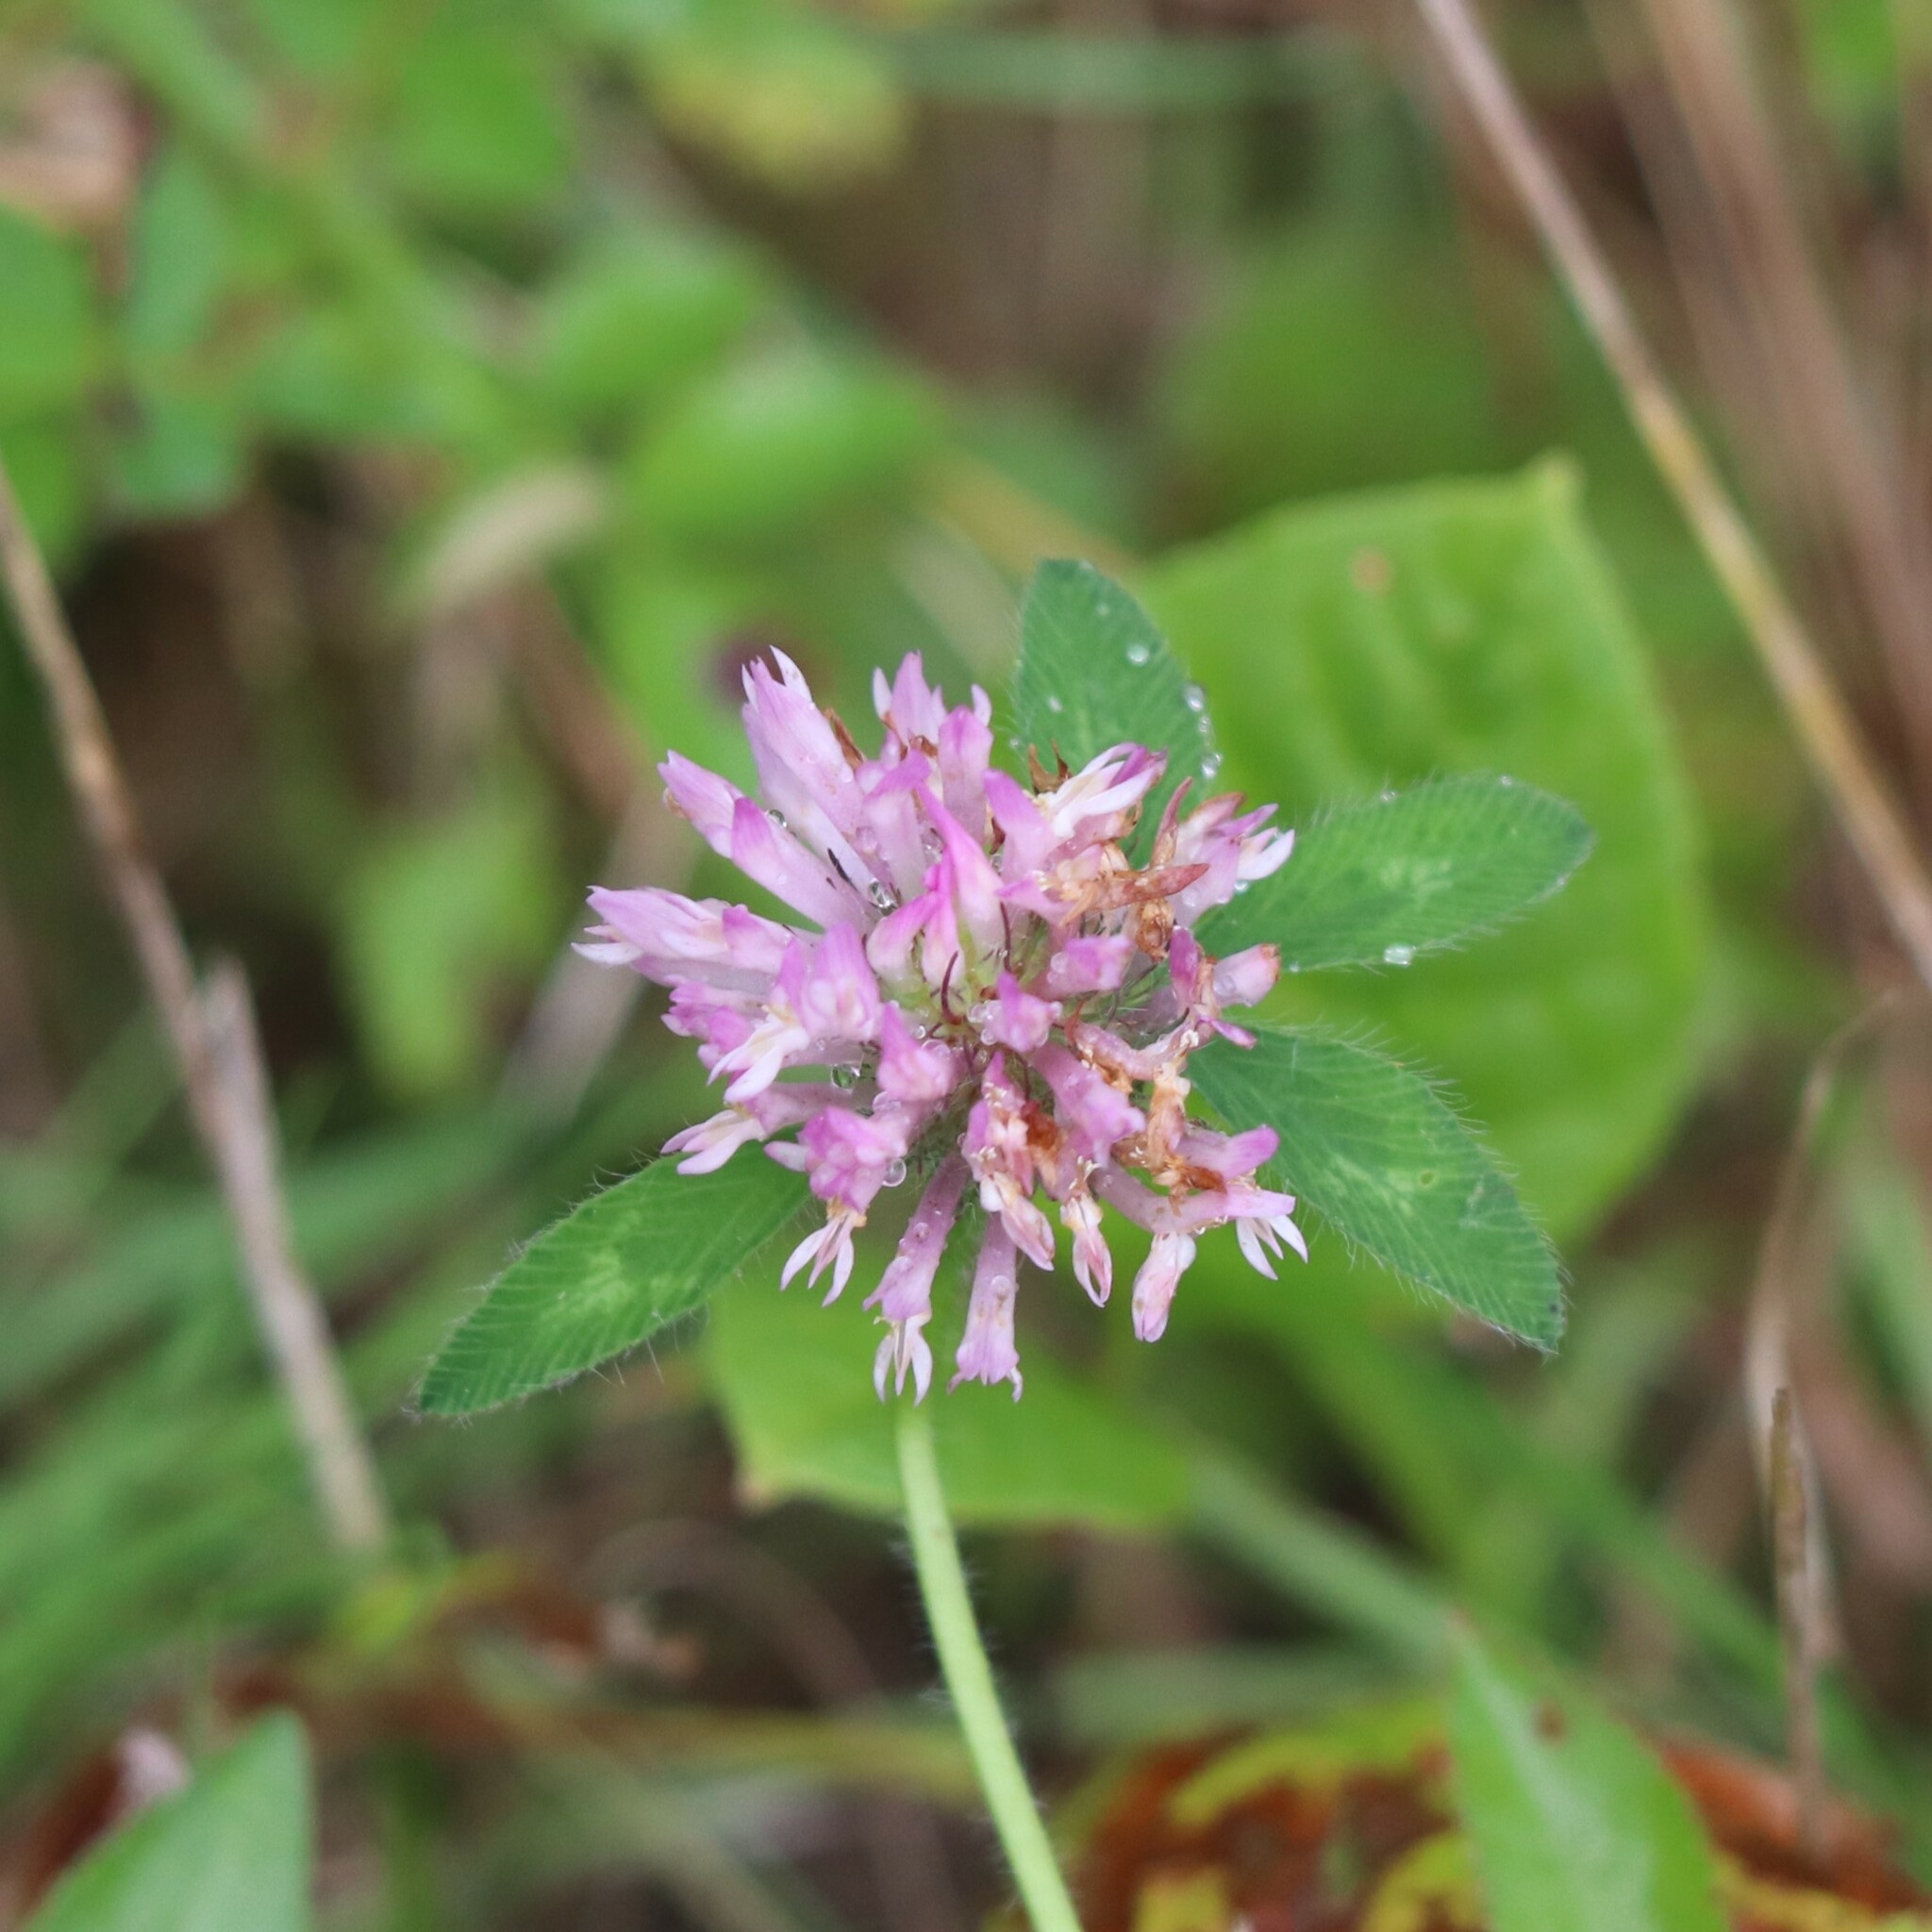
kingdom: Plantae
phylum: Tracheophyta
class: Magnoliopsida
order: Fabales
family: Fabaceae
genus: Trifolium
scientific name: Trifolium pratense
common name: Red clover
